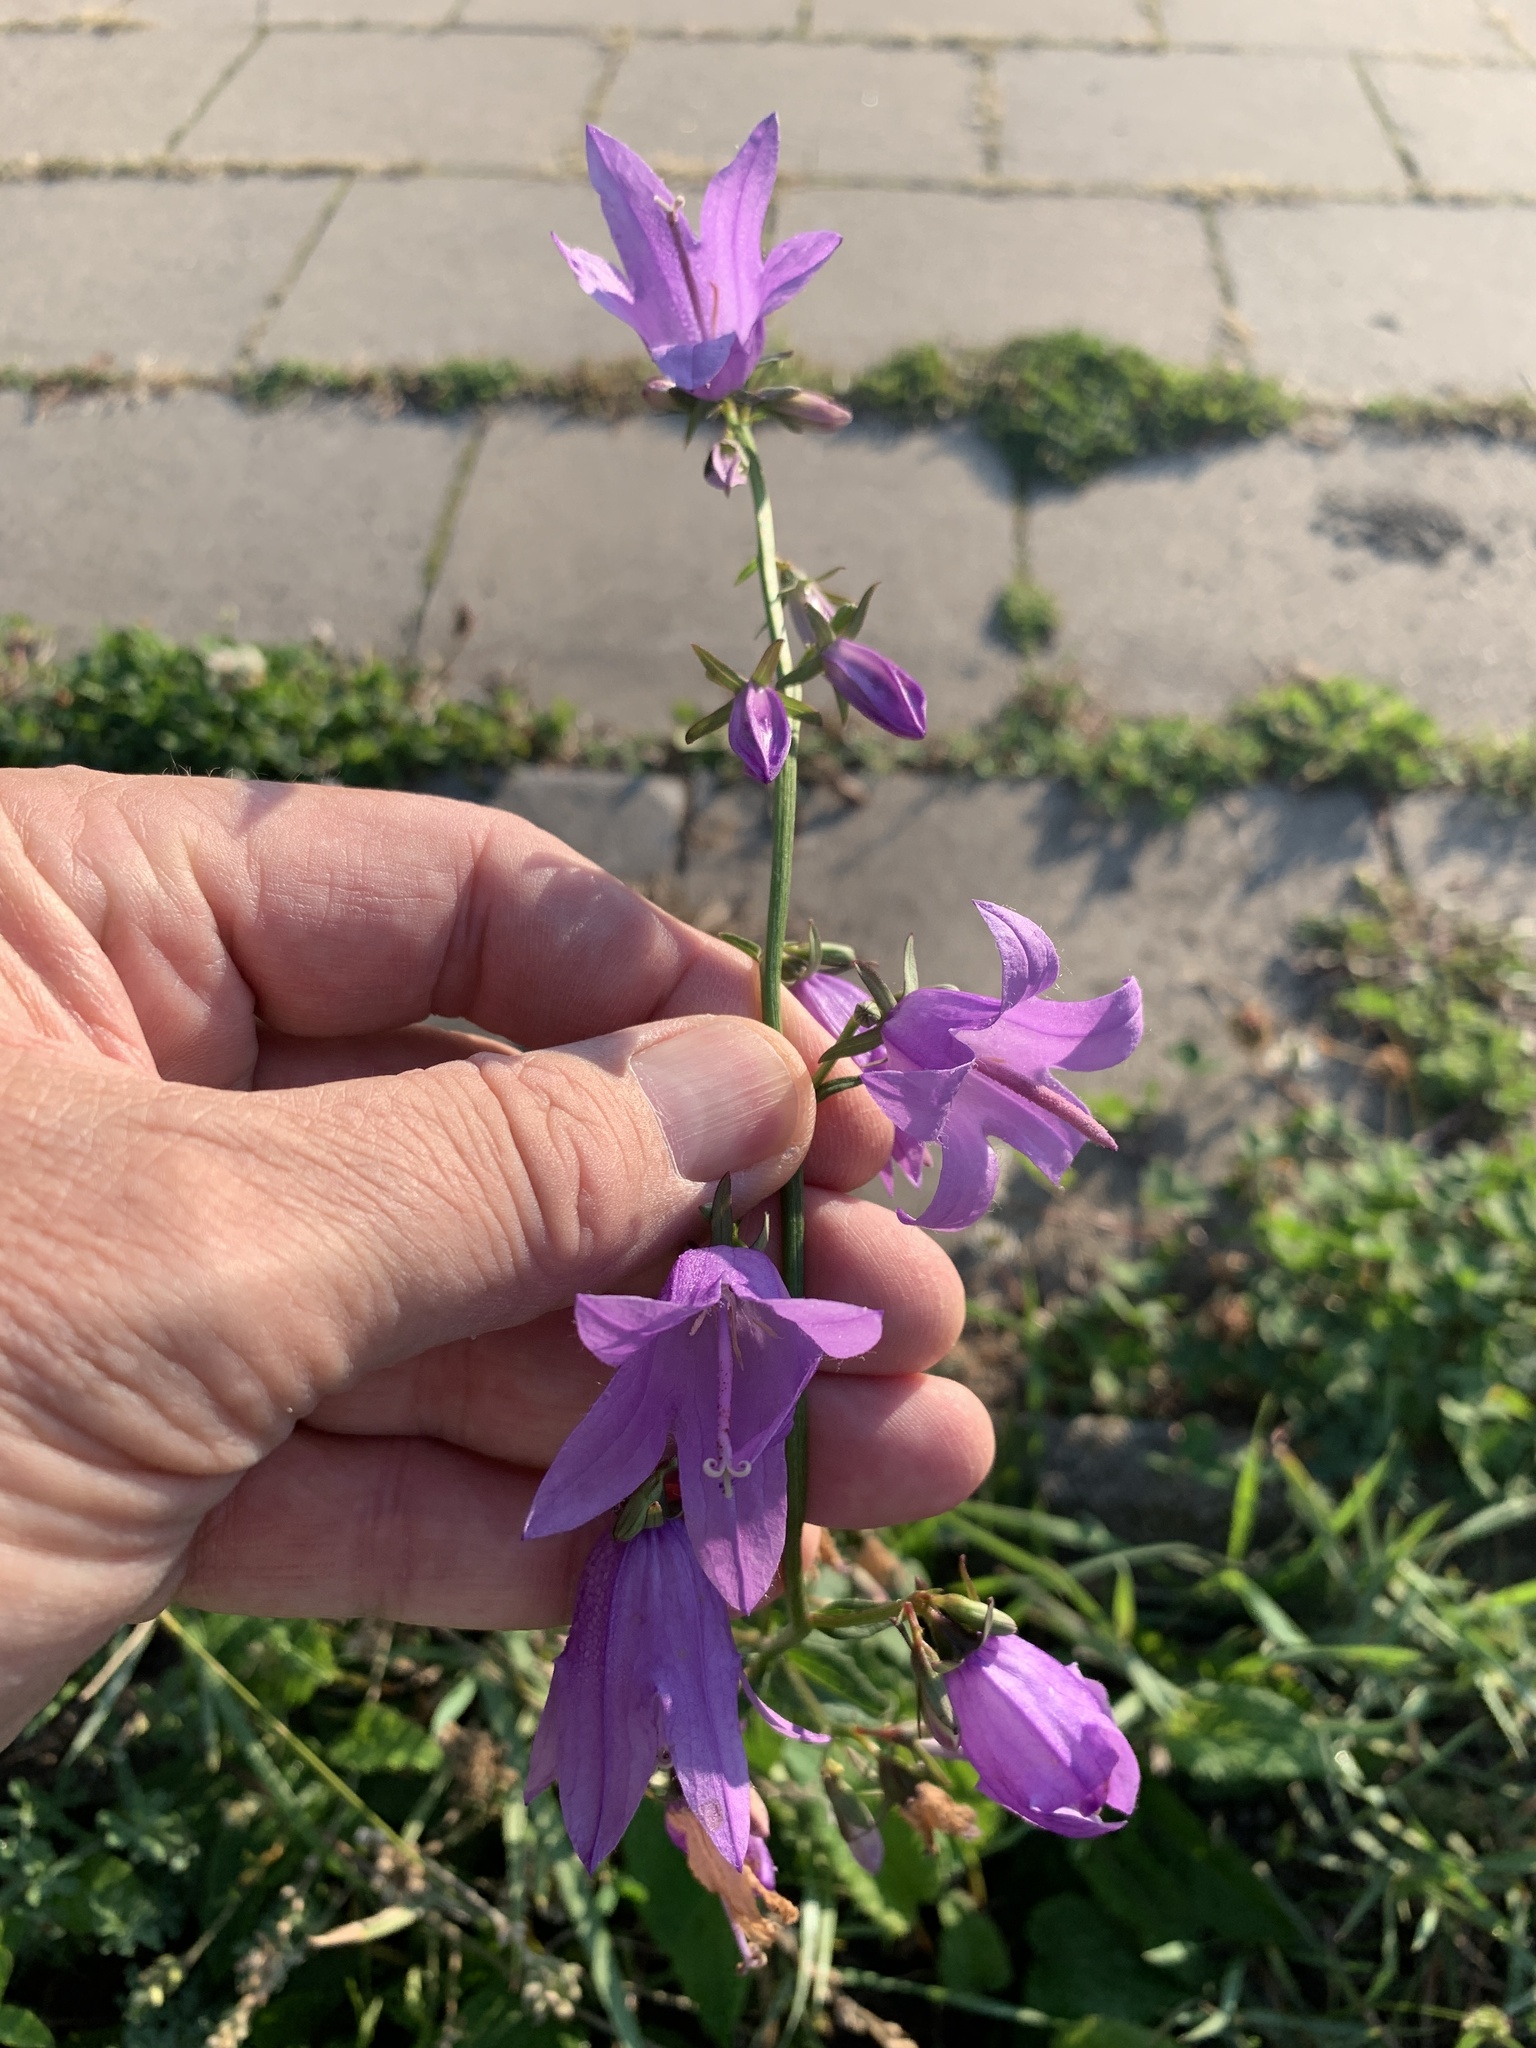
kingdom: Plantae
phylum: Tracheophyta
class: Magnoliopsida
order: Asterales
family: Campanulaceae
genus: Campanula
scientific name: Campanula rapunculoides
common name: Creeping bellflower
